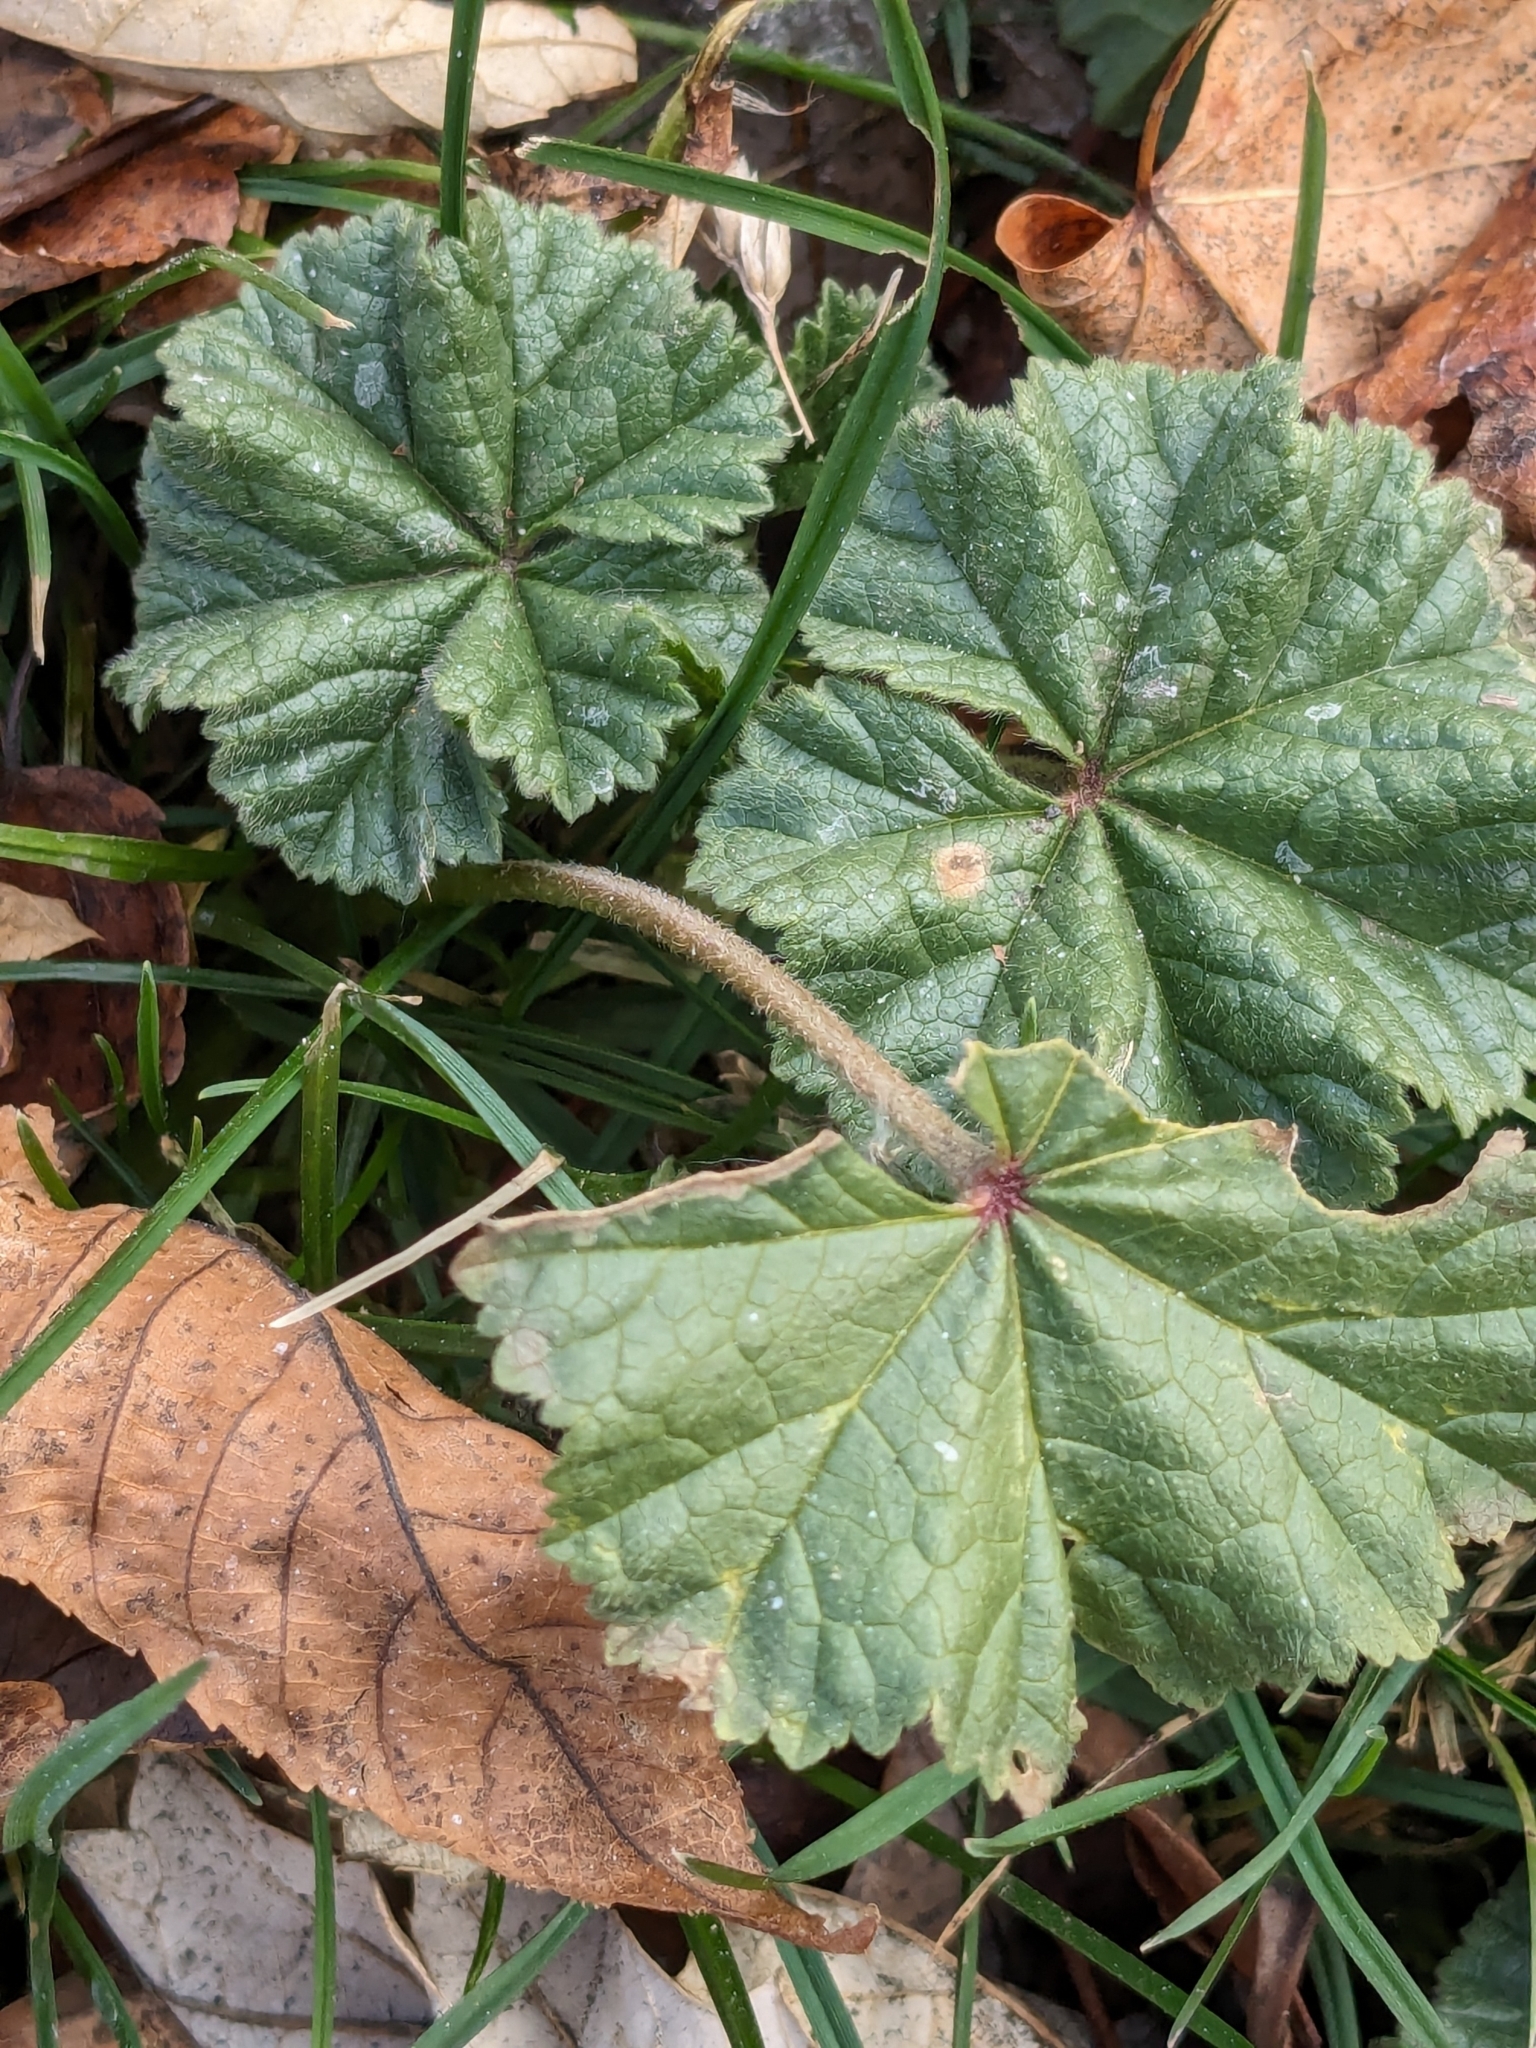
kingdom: Plantae
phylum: Tracheophyta
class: Magnoliopsida
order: Malvales
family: Malvaceae
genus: Malva
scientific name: Malva neglecta
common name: Common mallow
